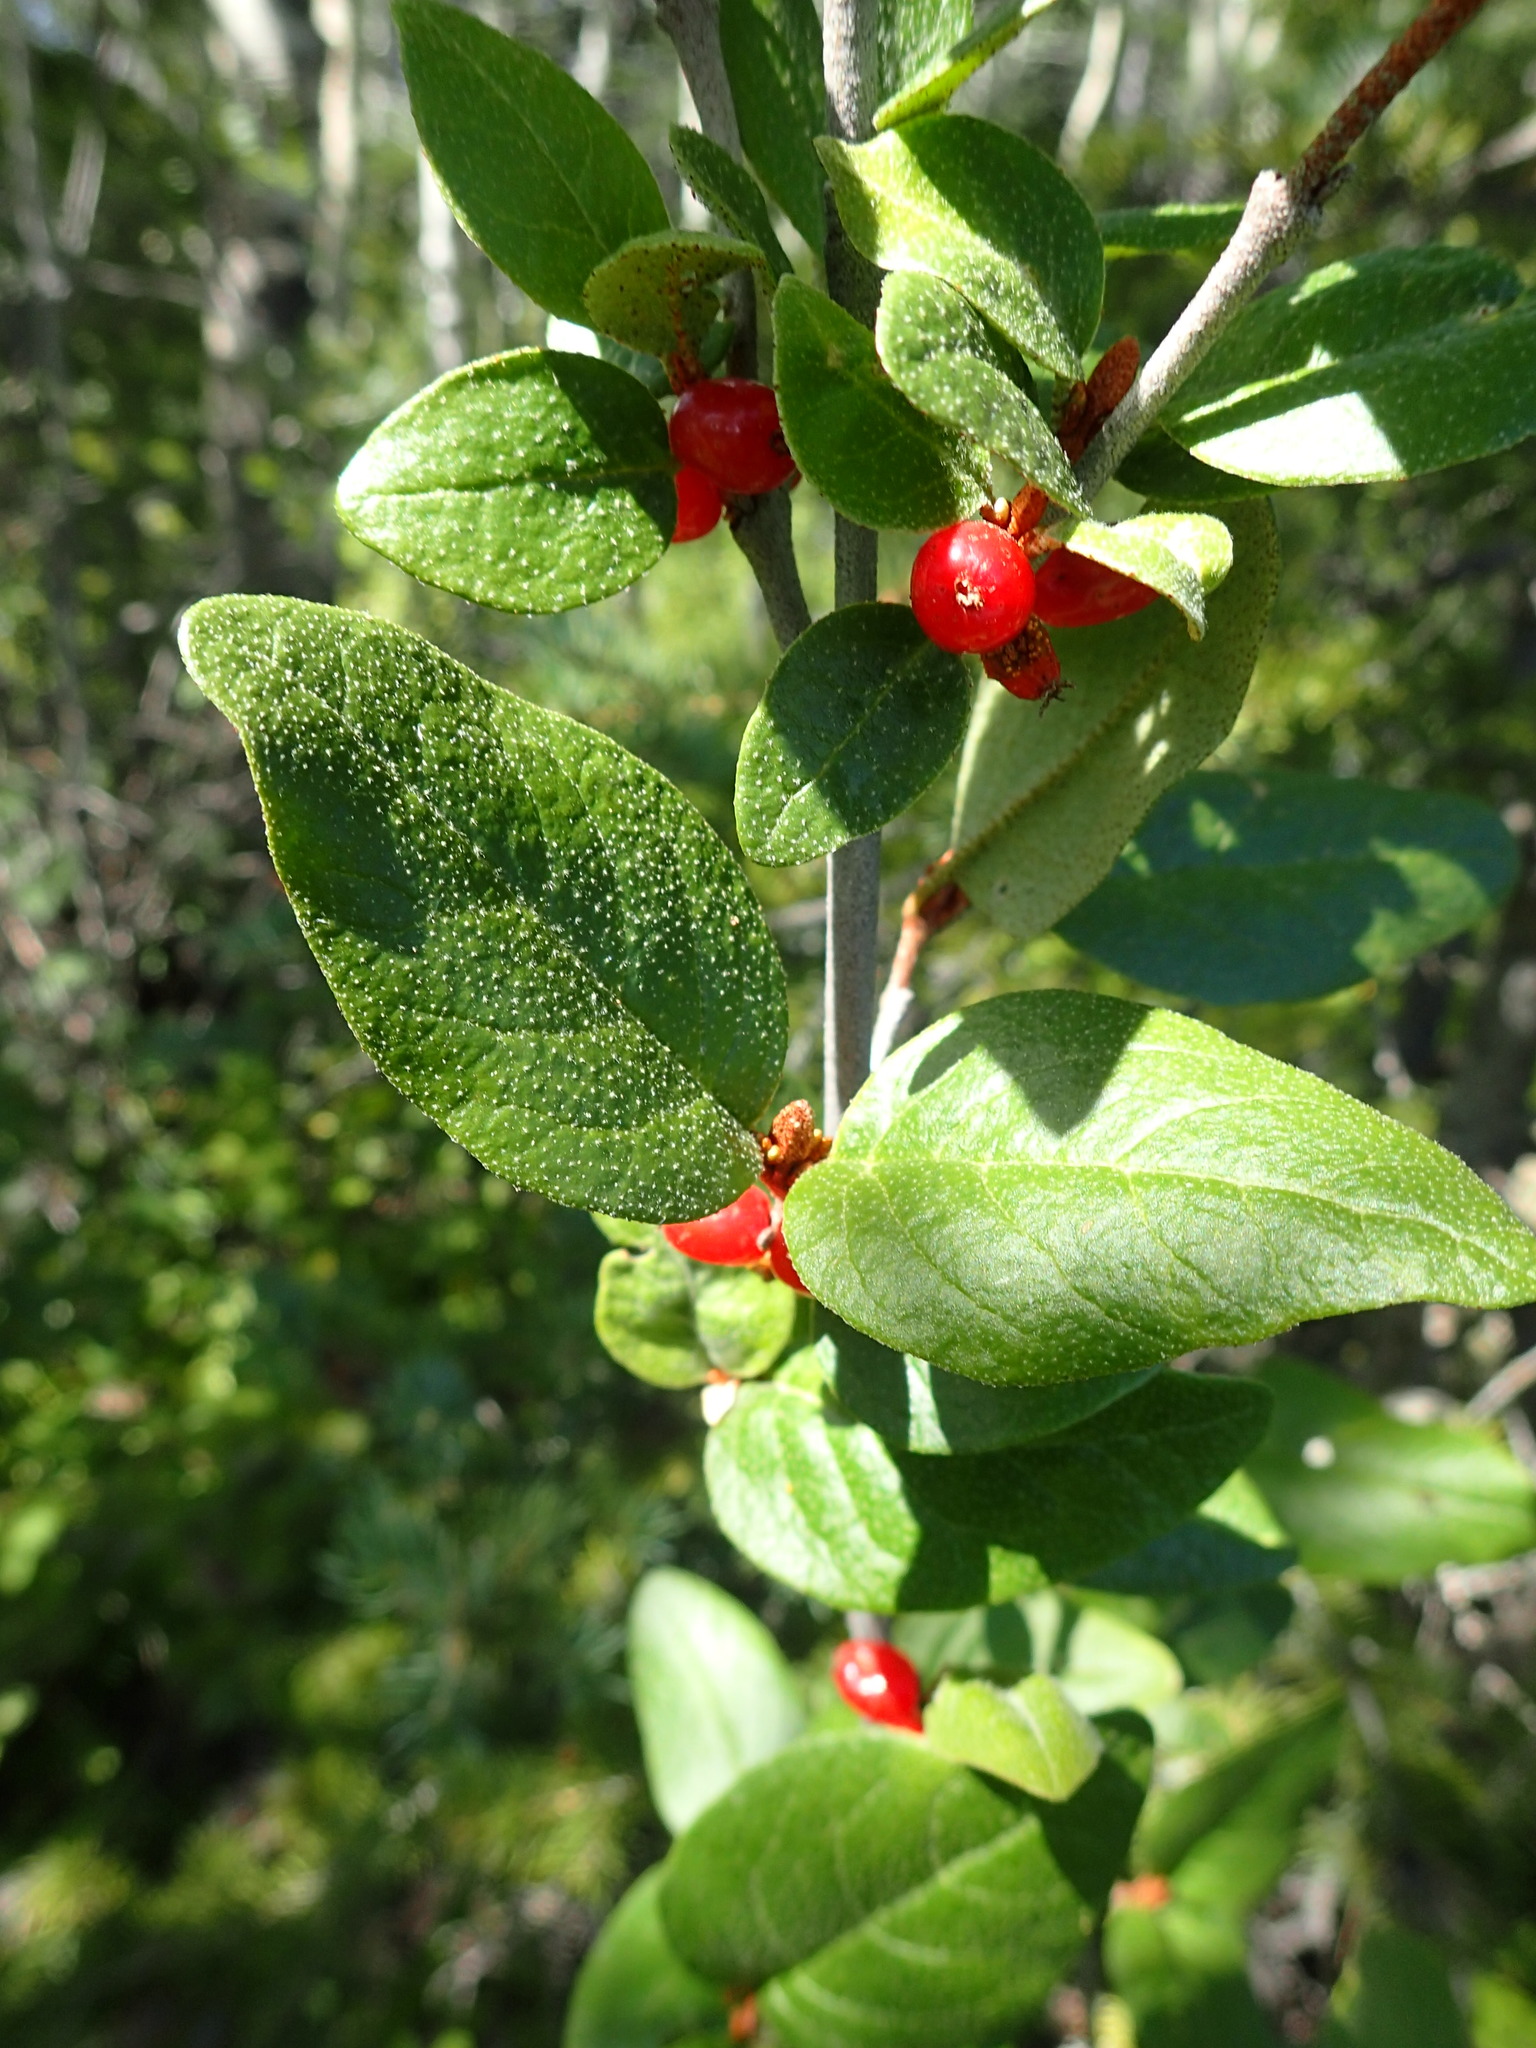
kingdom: Plantae
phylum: Tracheophyta
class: Magnoliopsida
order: Rosales
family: Elaeagnaceae
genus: Shepherdia
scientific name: Shepherdia canadensis
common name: Soapberry
